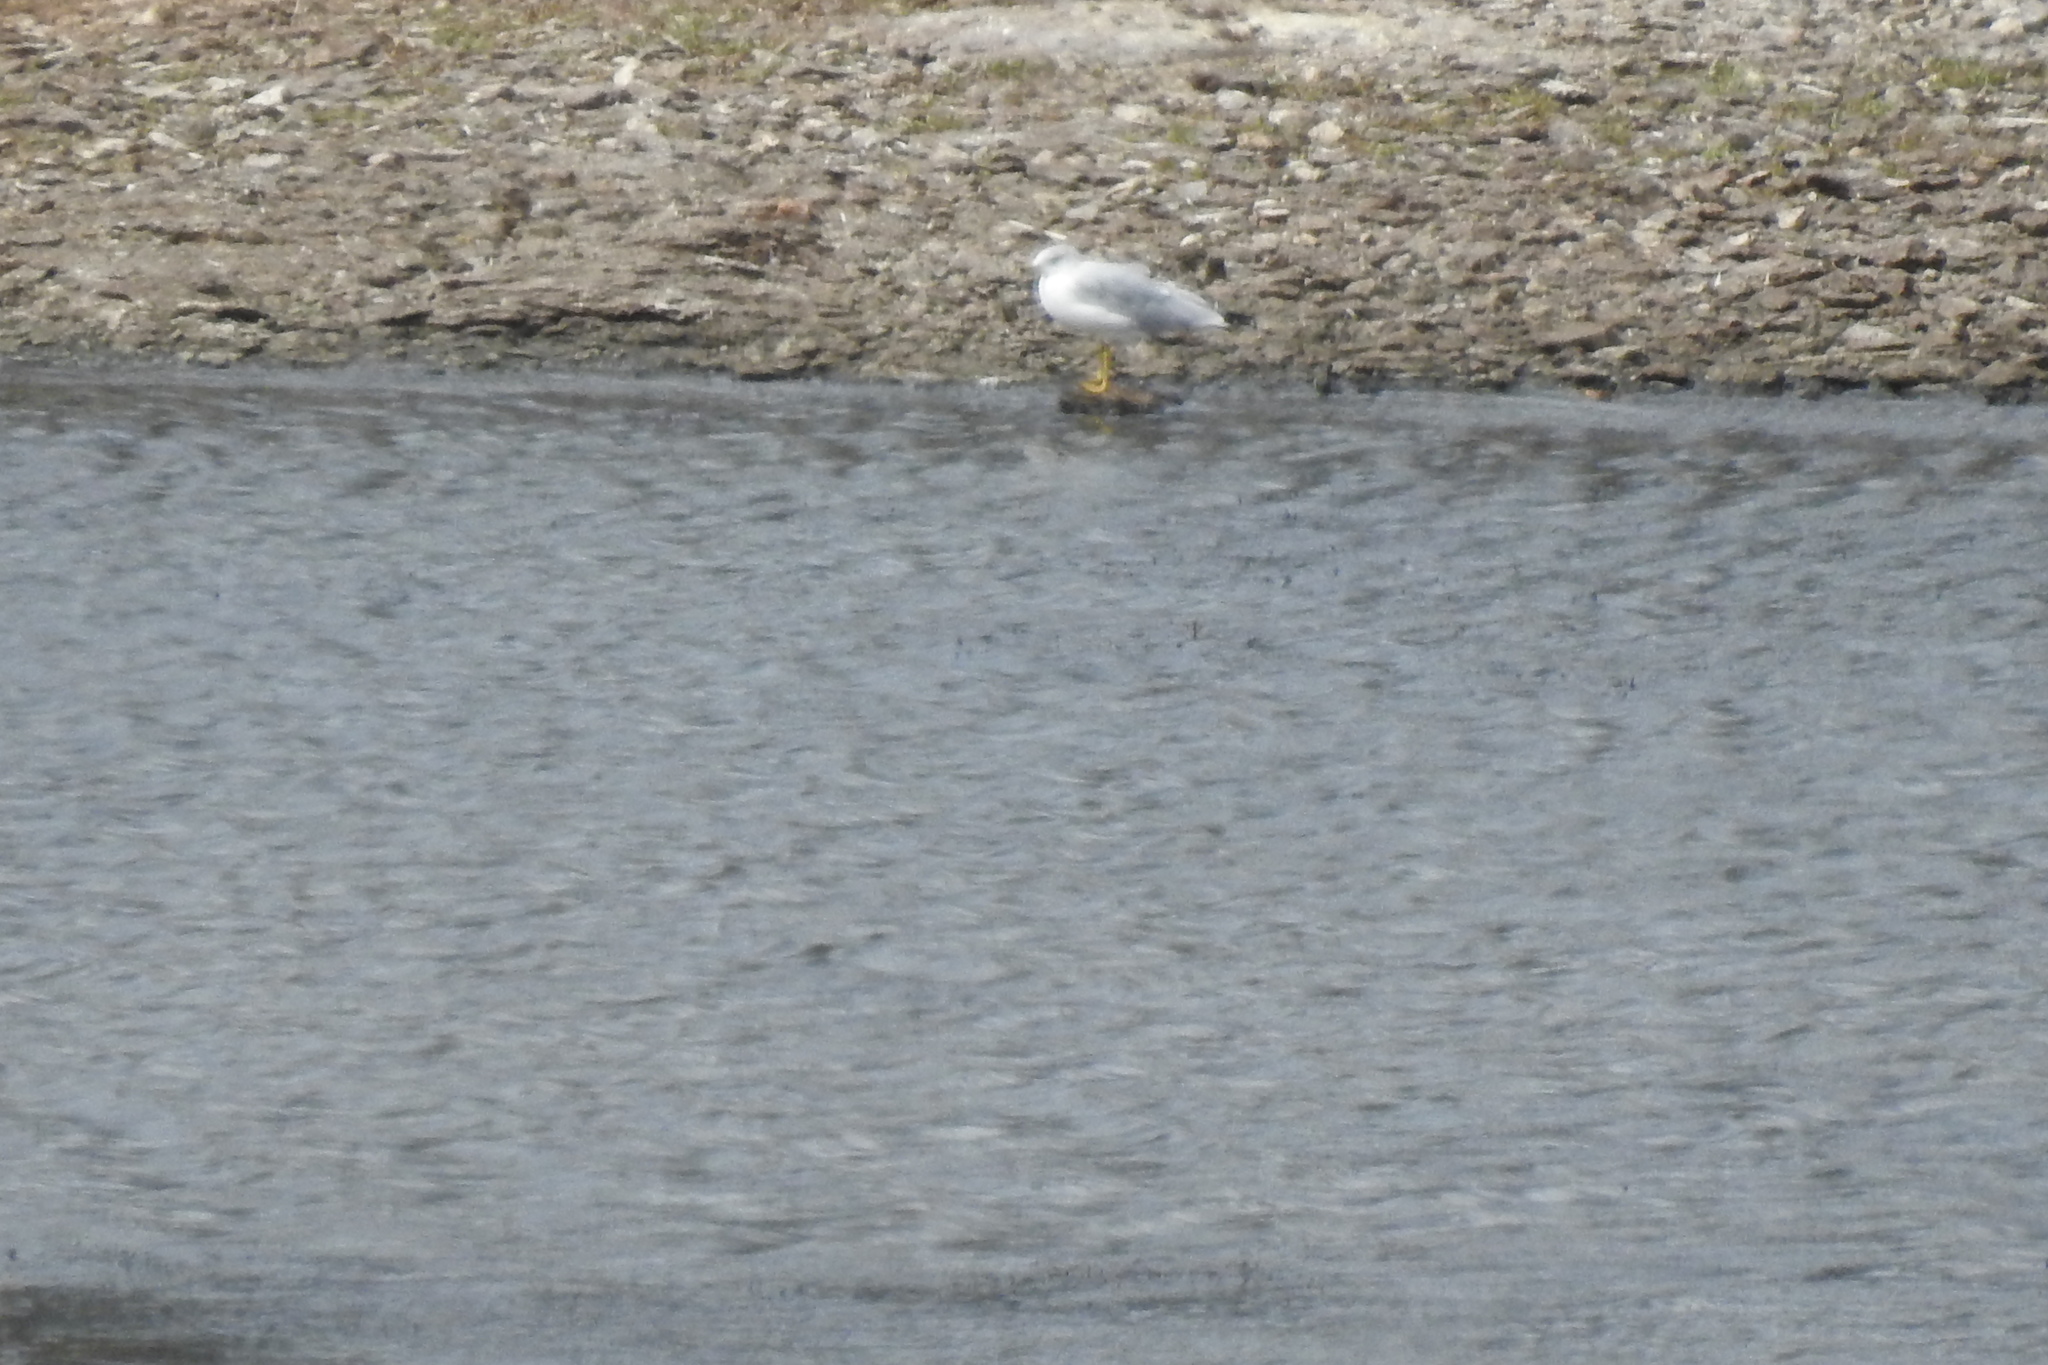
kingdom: Animalia
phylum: Chordata
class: Aves
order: Charadriiformes
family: Laridae
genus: Larus
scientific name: Larus delawarensis
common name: Ring-billed gull
